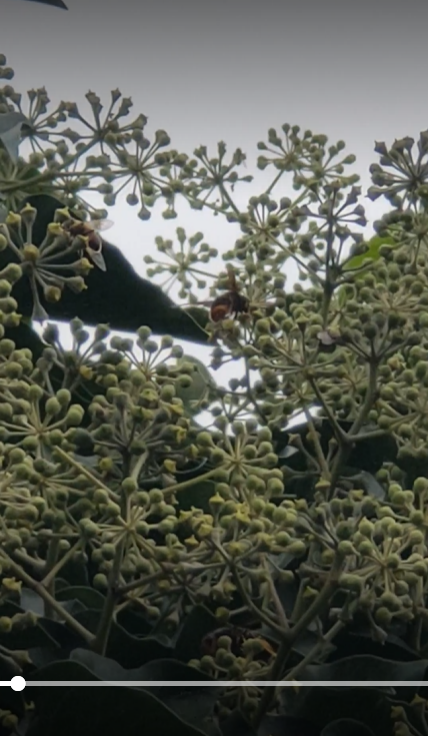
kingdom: Animalia
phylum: Arthropoda
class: Insecta
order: Hymenoptera
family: Vespidae
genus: Vespa
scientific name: Vespa velutina
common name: Asian hornet
